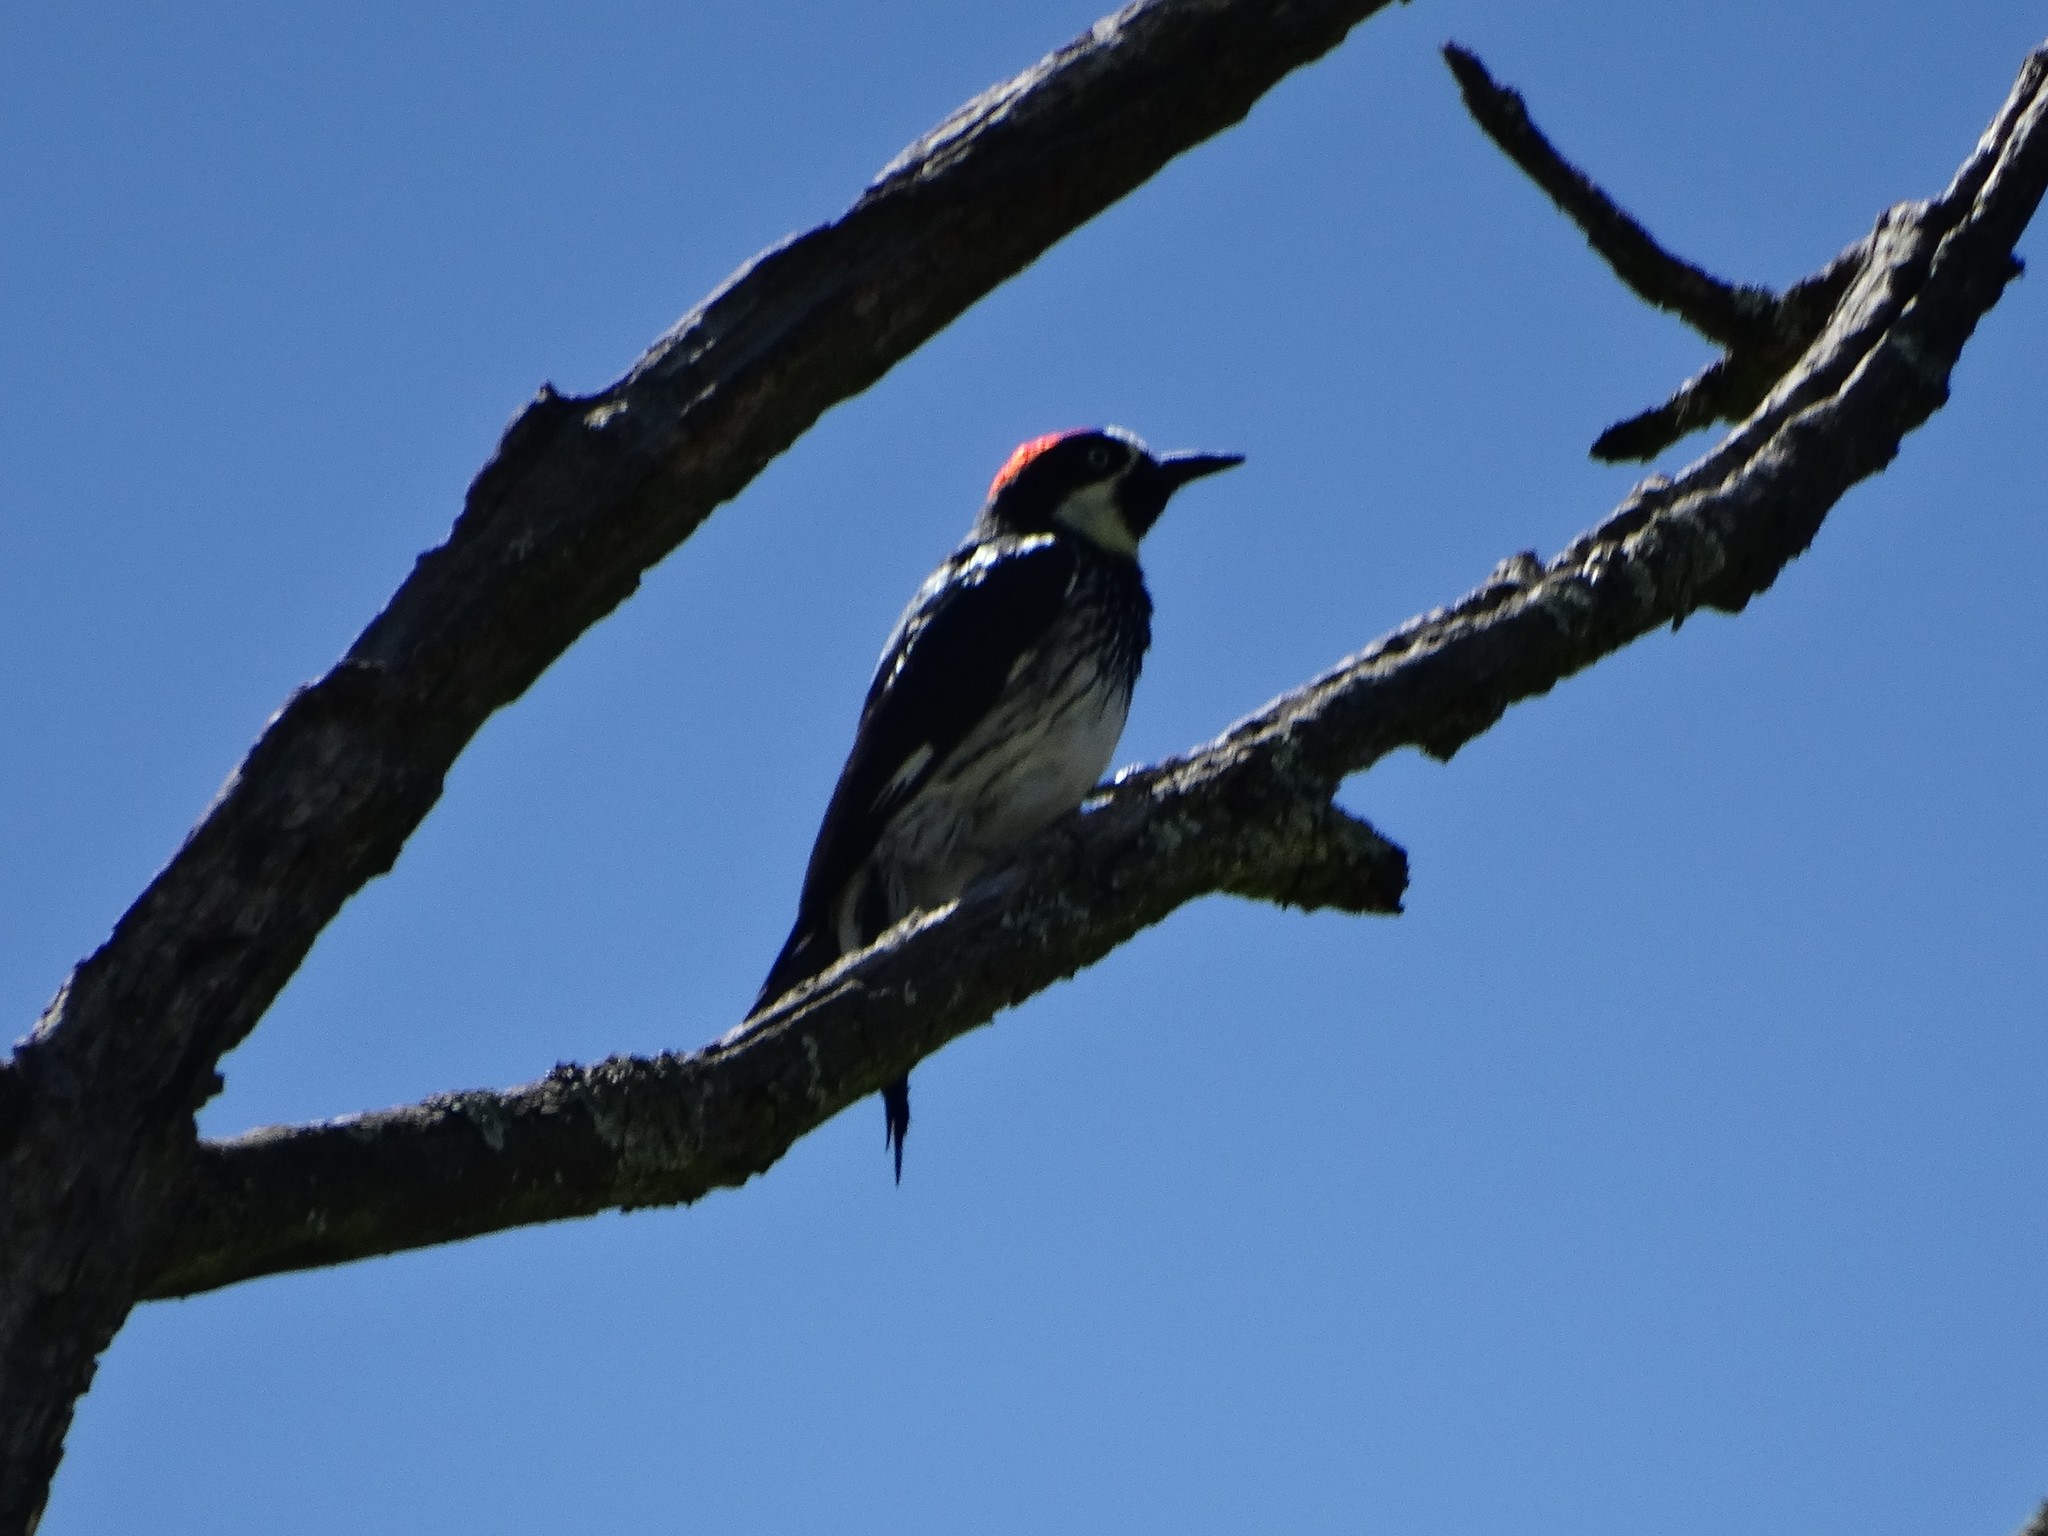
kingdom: Animalia
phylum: Chordata
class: Aves
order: Piciformes
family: Picidae
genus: Melanerpes
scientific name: Melanerpes formicivorus
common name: Acorn woodpecker
